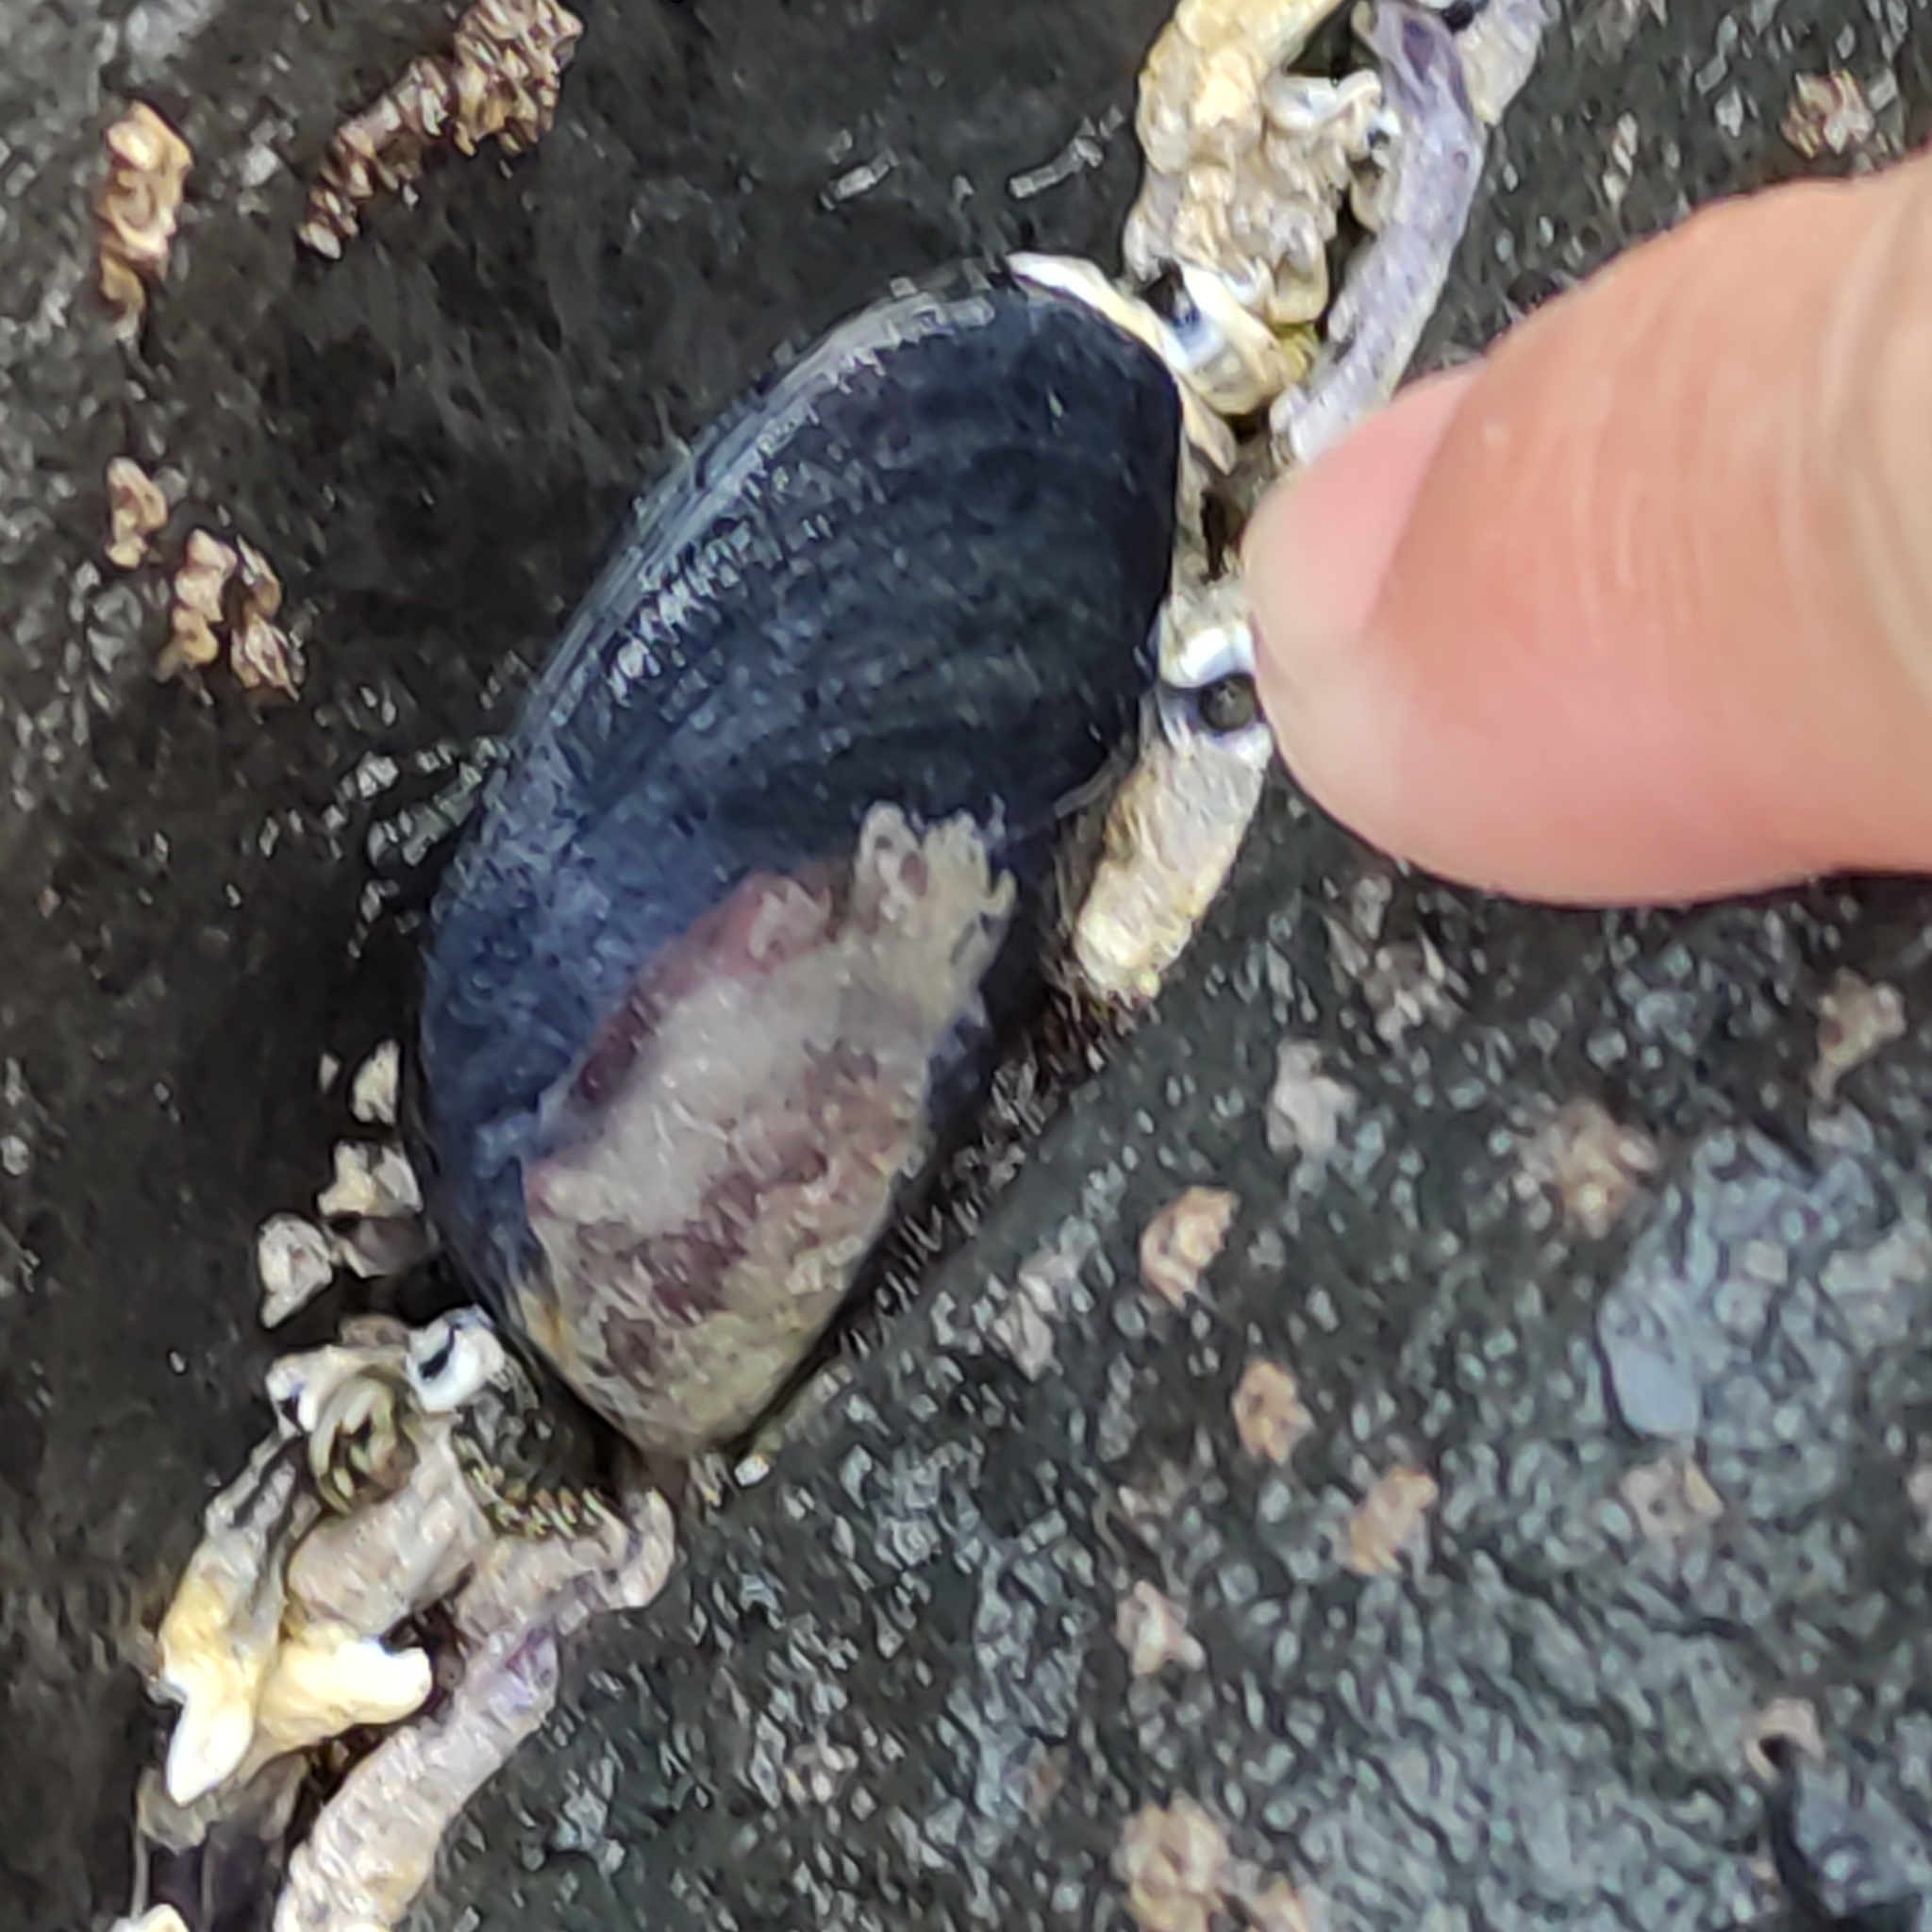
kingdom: Animalia
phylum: Mollusca
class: Bivalvia
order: Mytilida
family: Mytilidae
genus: Mytilus
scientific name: Mytilus planulatus
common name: Australian mussel
